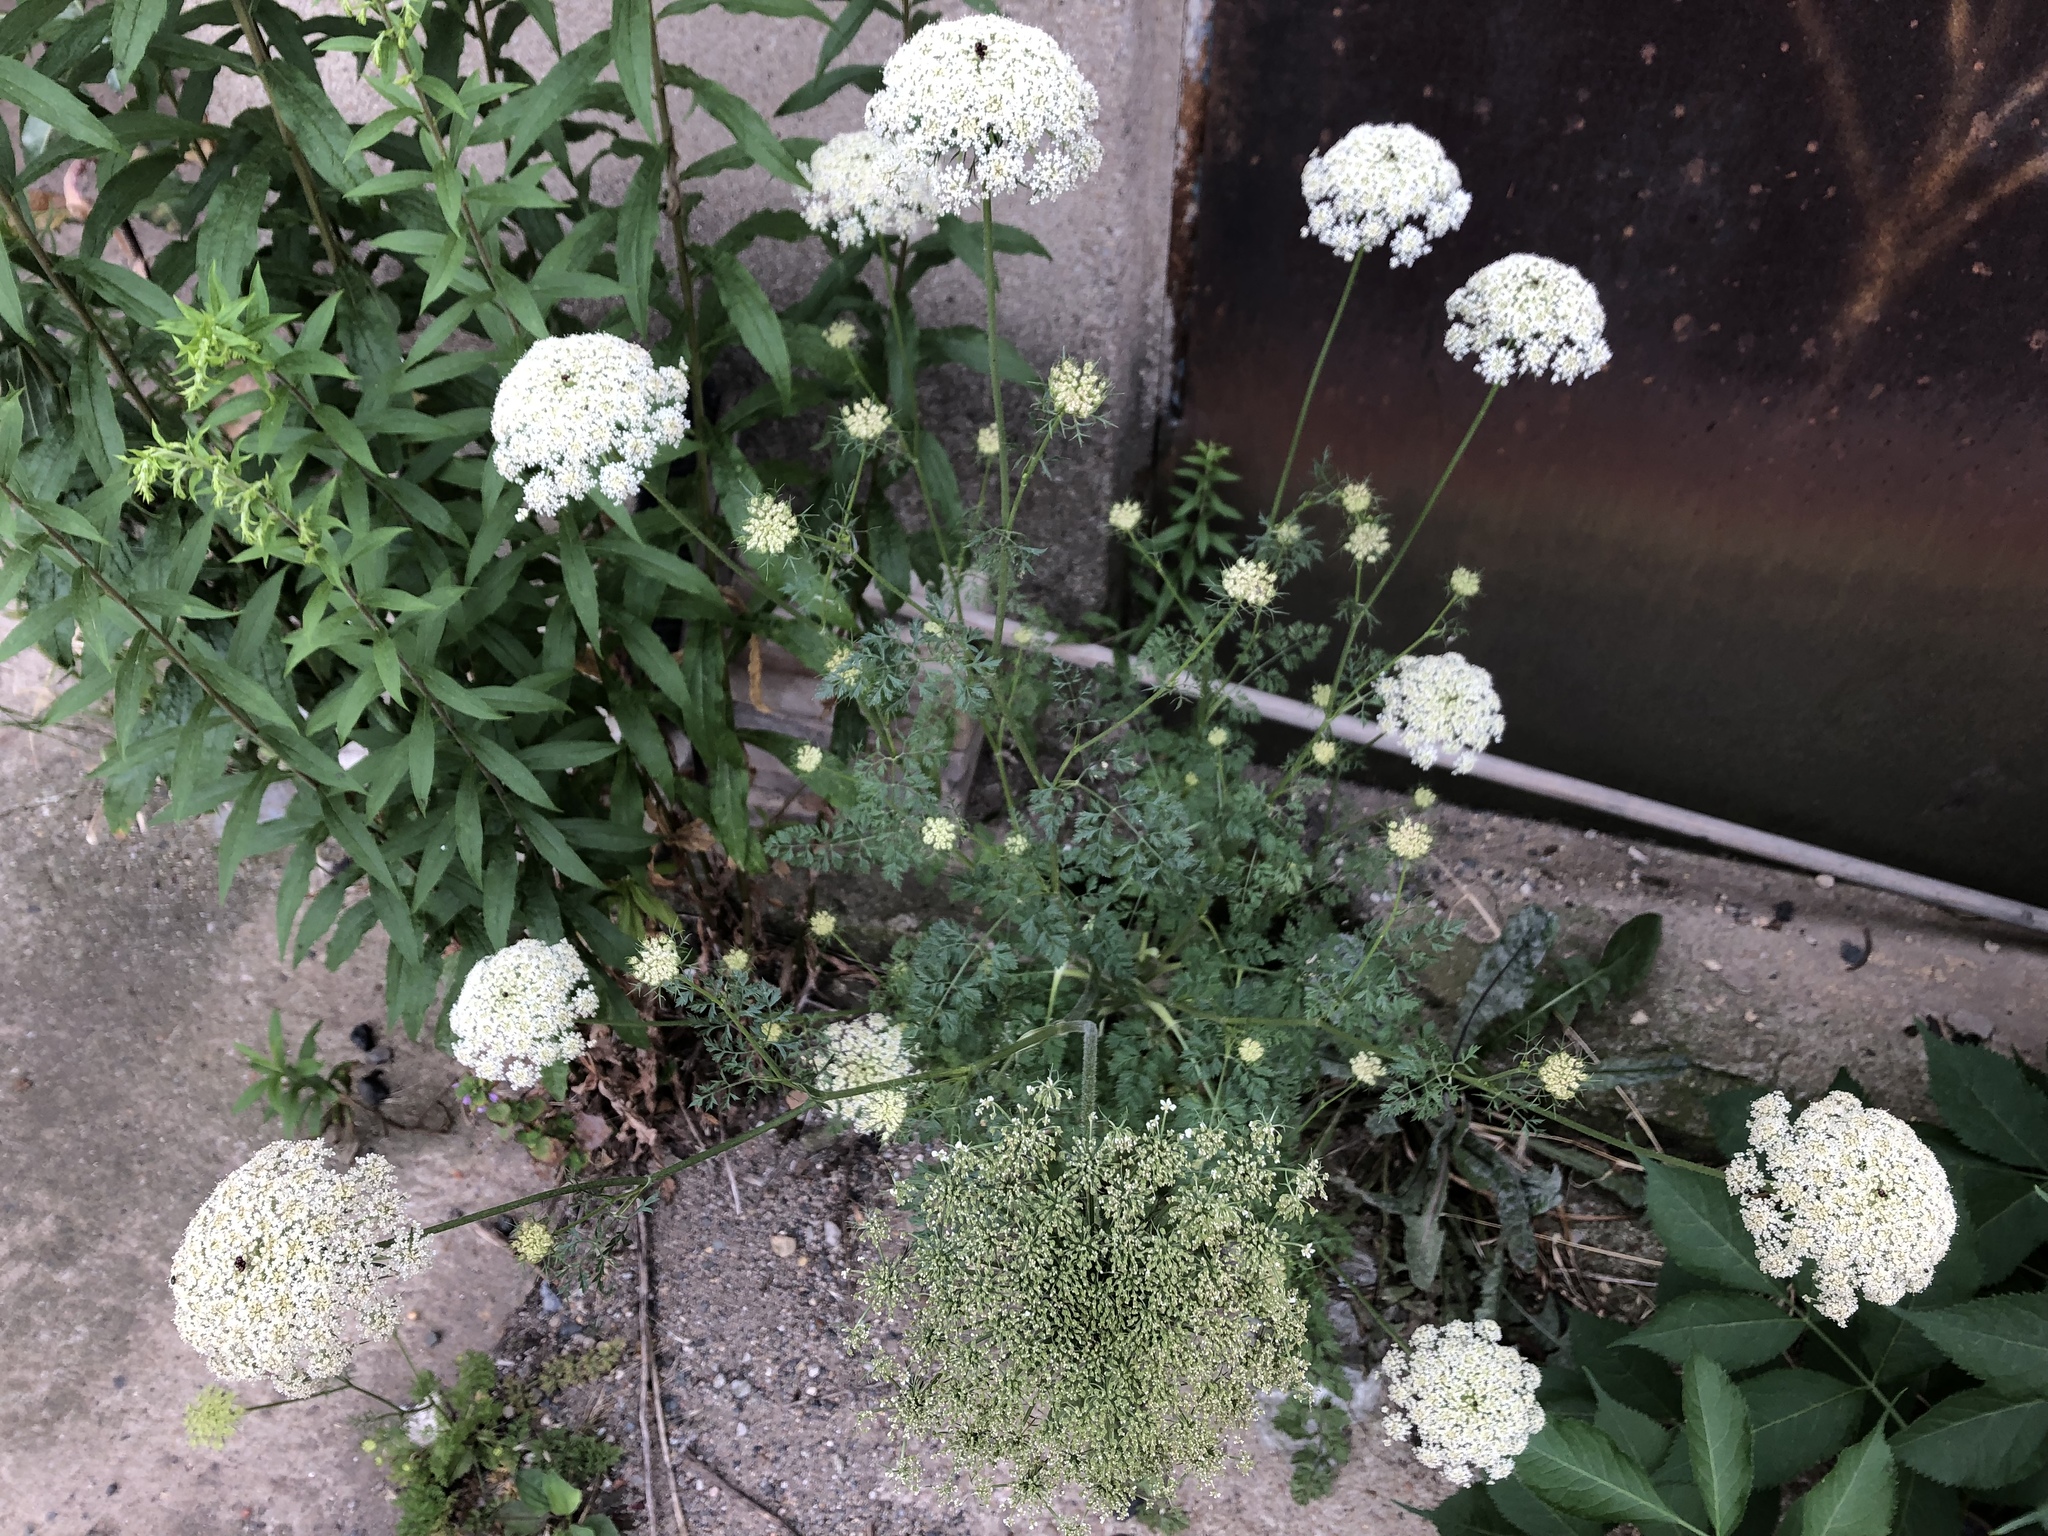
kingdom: Plantae
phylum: Tracheophyta
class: Magnoliopsida
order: Apiales
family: Apiaceae
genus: Daucus
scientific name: Daucus carota
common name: Wild carrot
